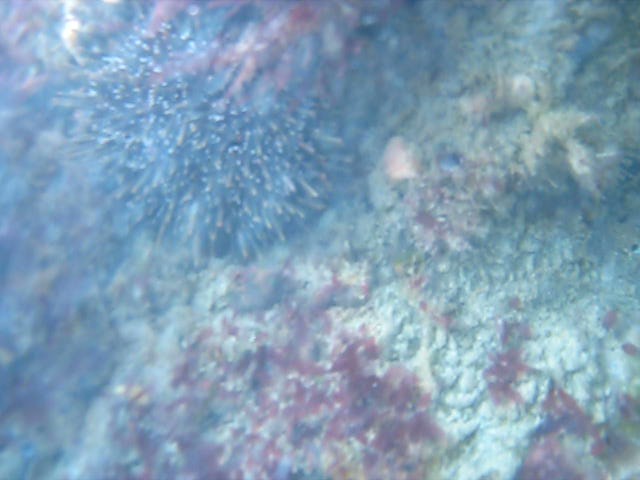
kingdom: Animalia
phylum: Echinodermata
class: Echinoidea
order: Camarodonta
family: Echinometridae
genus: Evechinus
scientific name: Evechinus chloroticus
